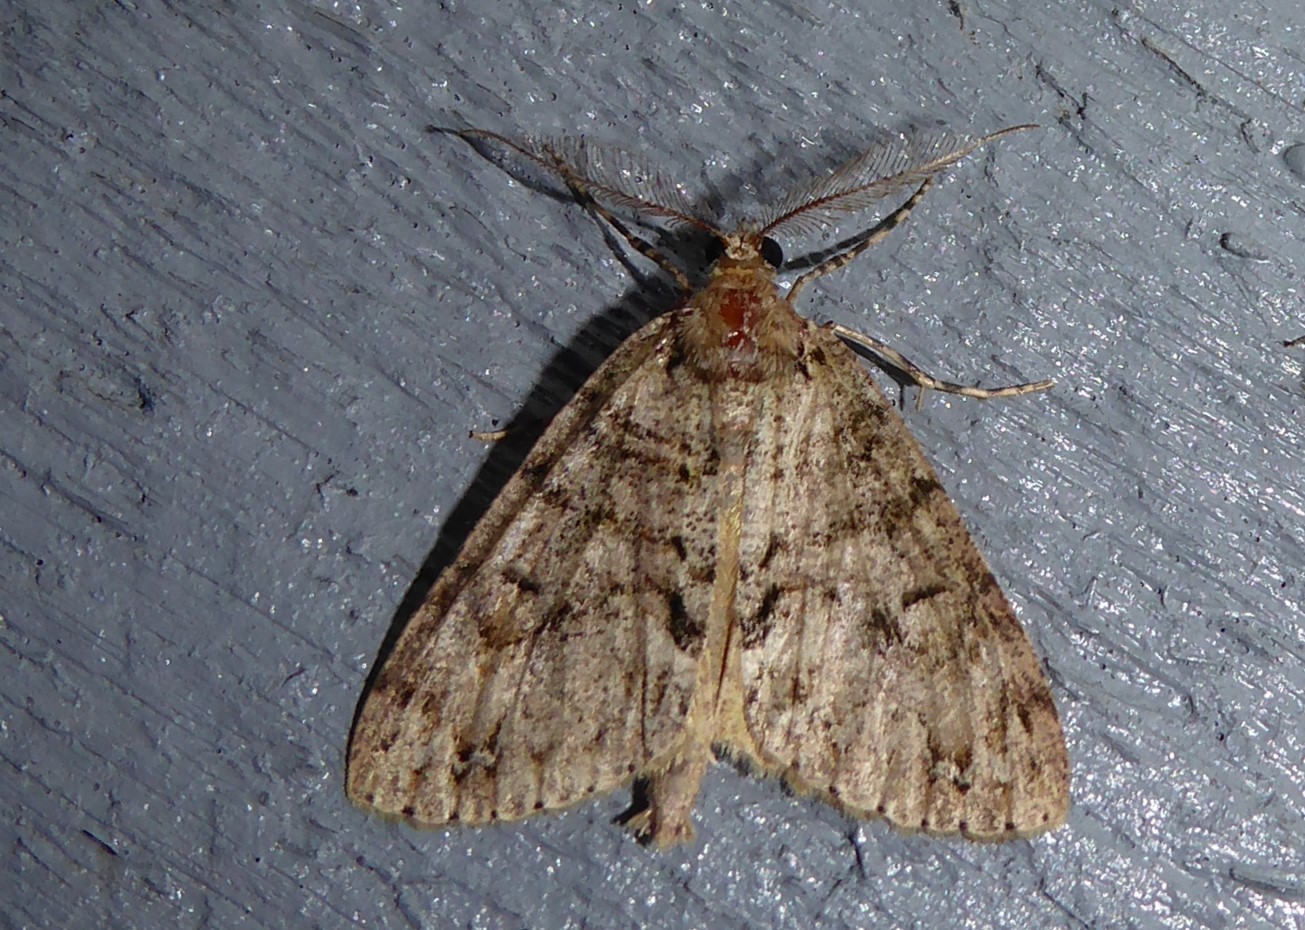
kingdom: Animalia
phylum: Arthropoda
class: Insecta
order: Lepidoptera
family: Geometridae
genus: Pseudocoremia
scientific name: Pseudocoremia suavis
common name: Common forest looper
